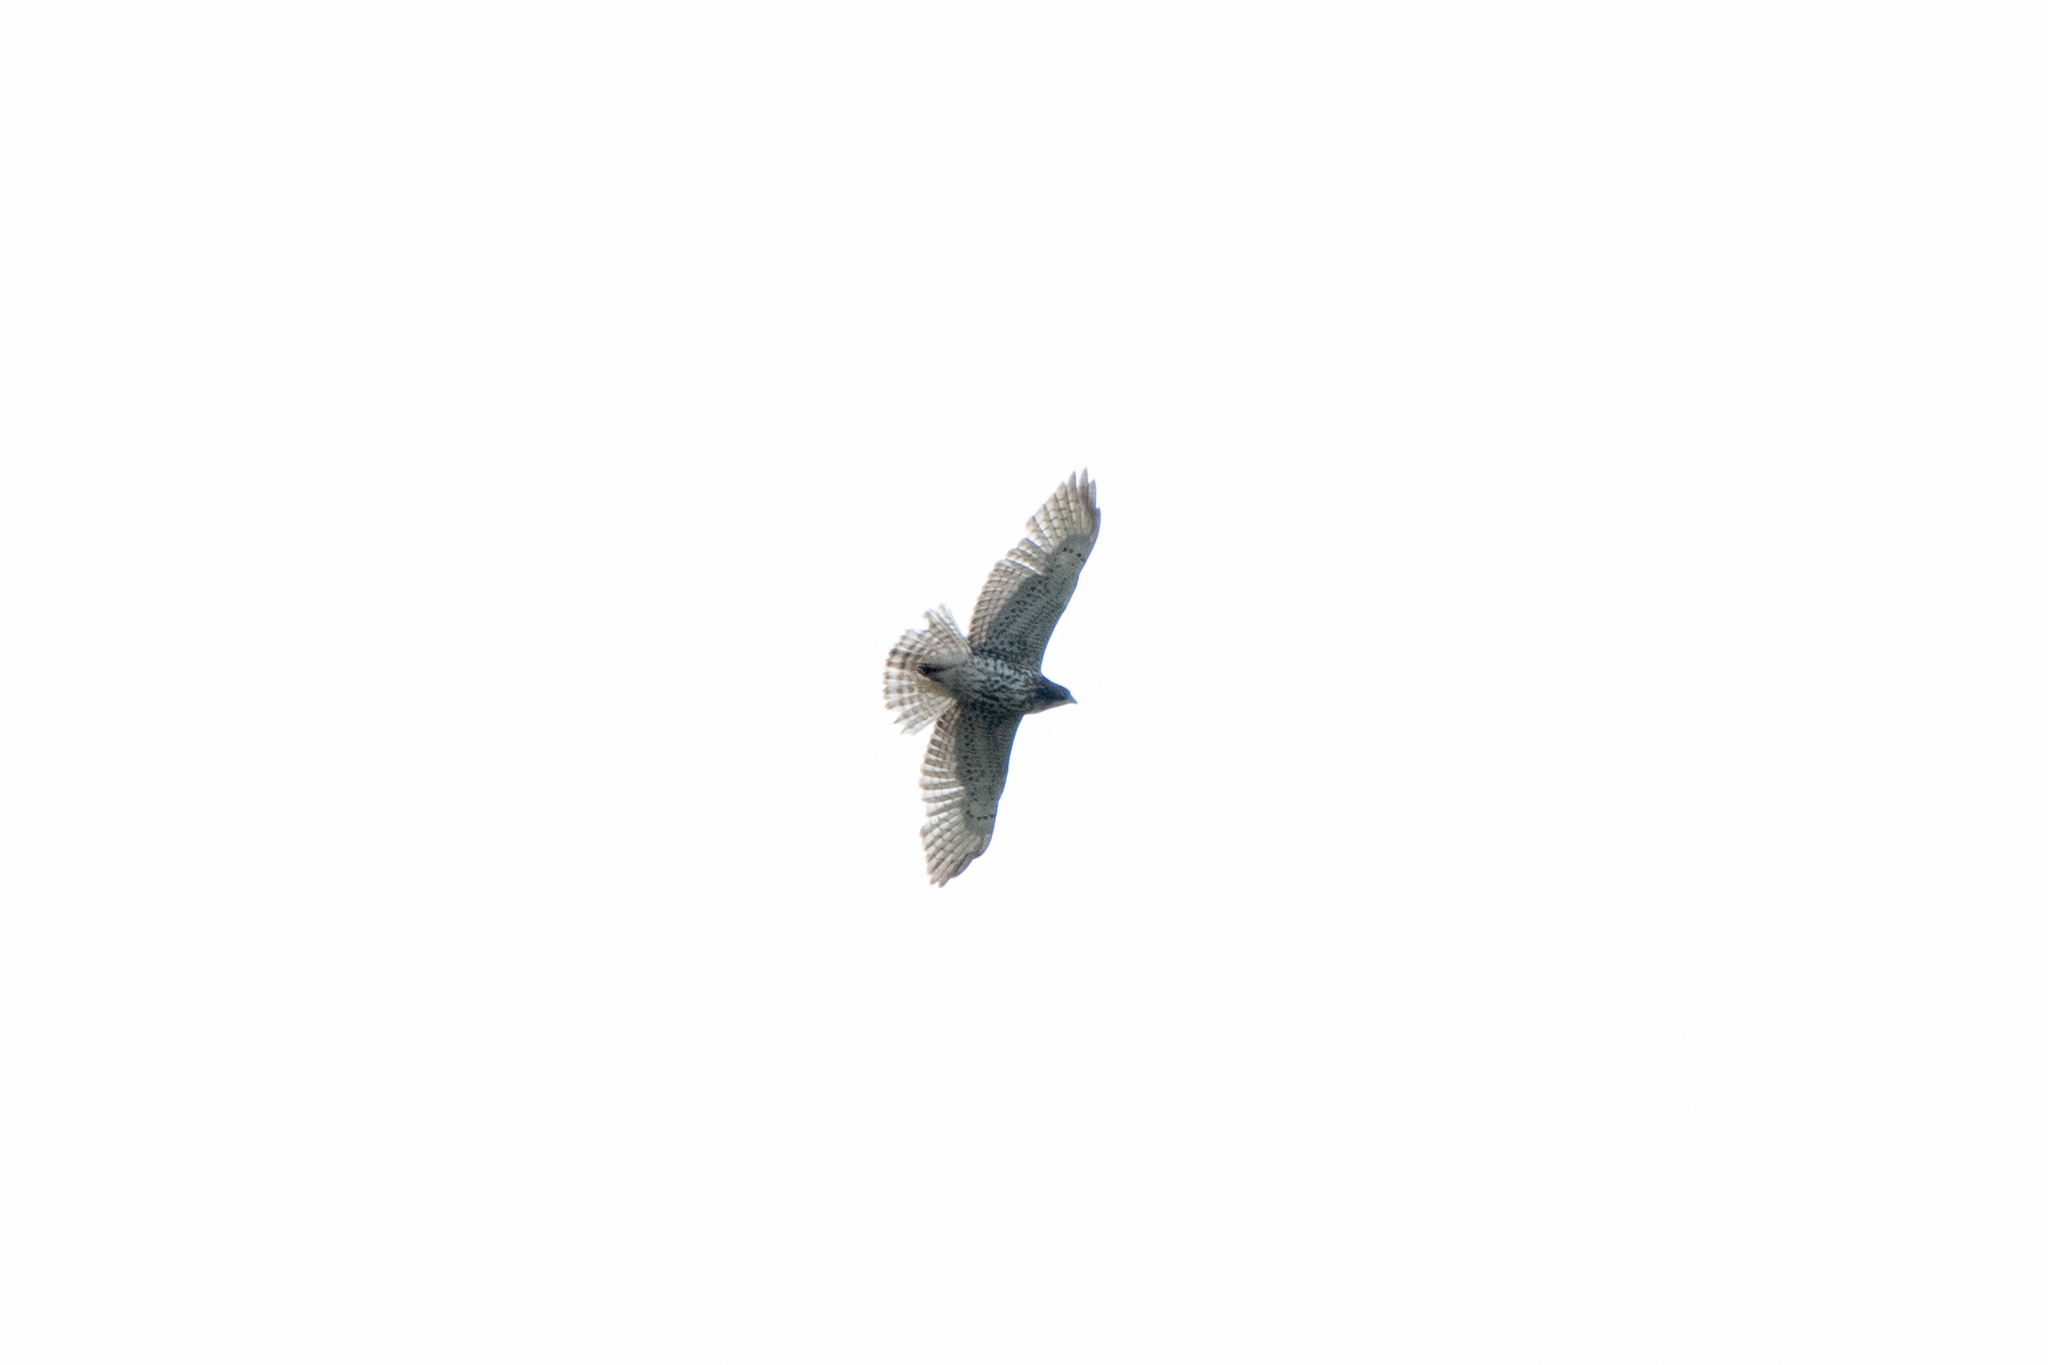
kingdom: Animalia
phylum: Chordata
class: Aves
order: Accipitriformes
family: Accipitridae
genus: Buteo
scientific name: Buteo platypterus
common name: Broad-winged hawk
